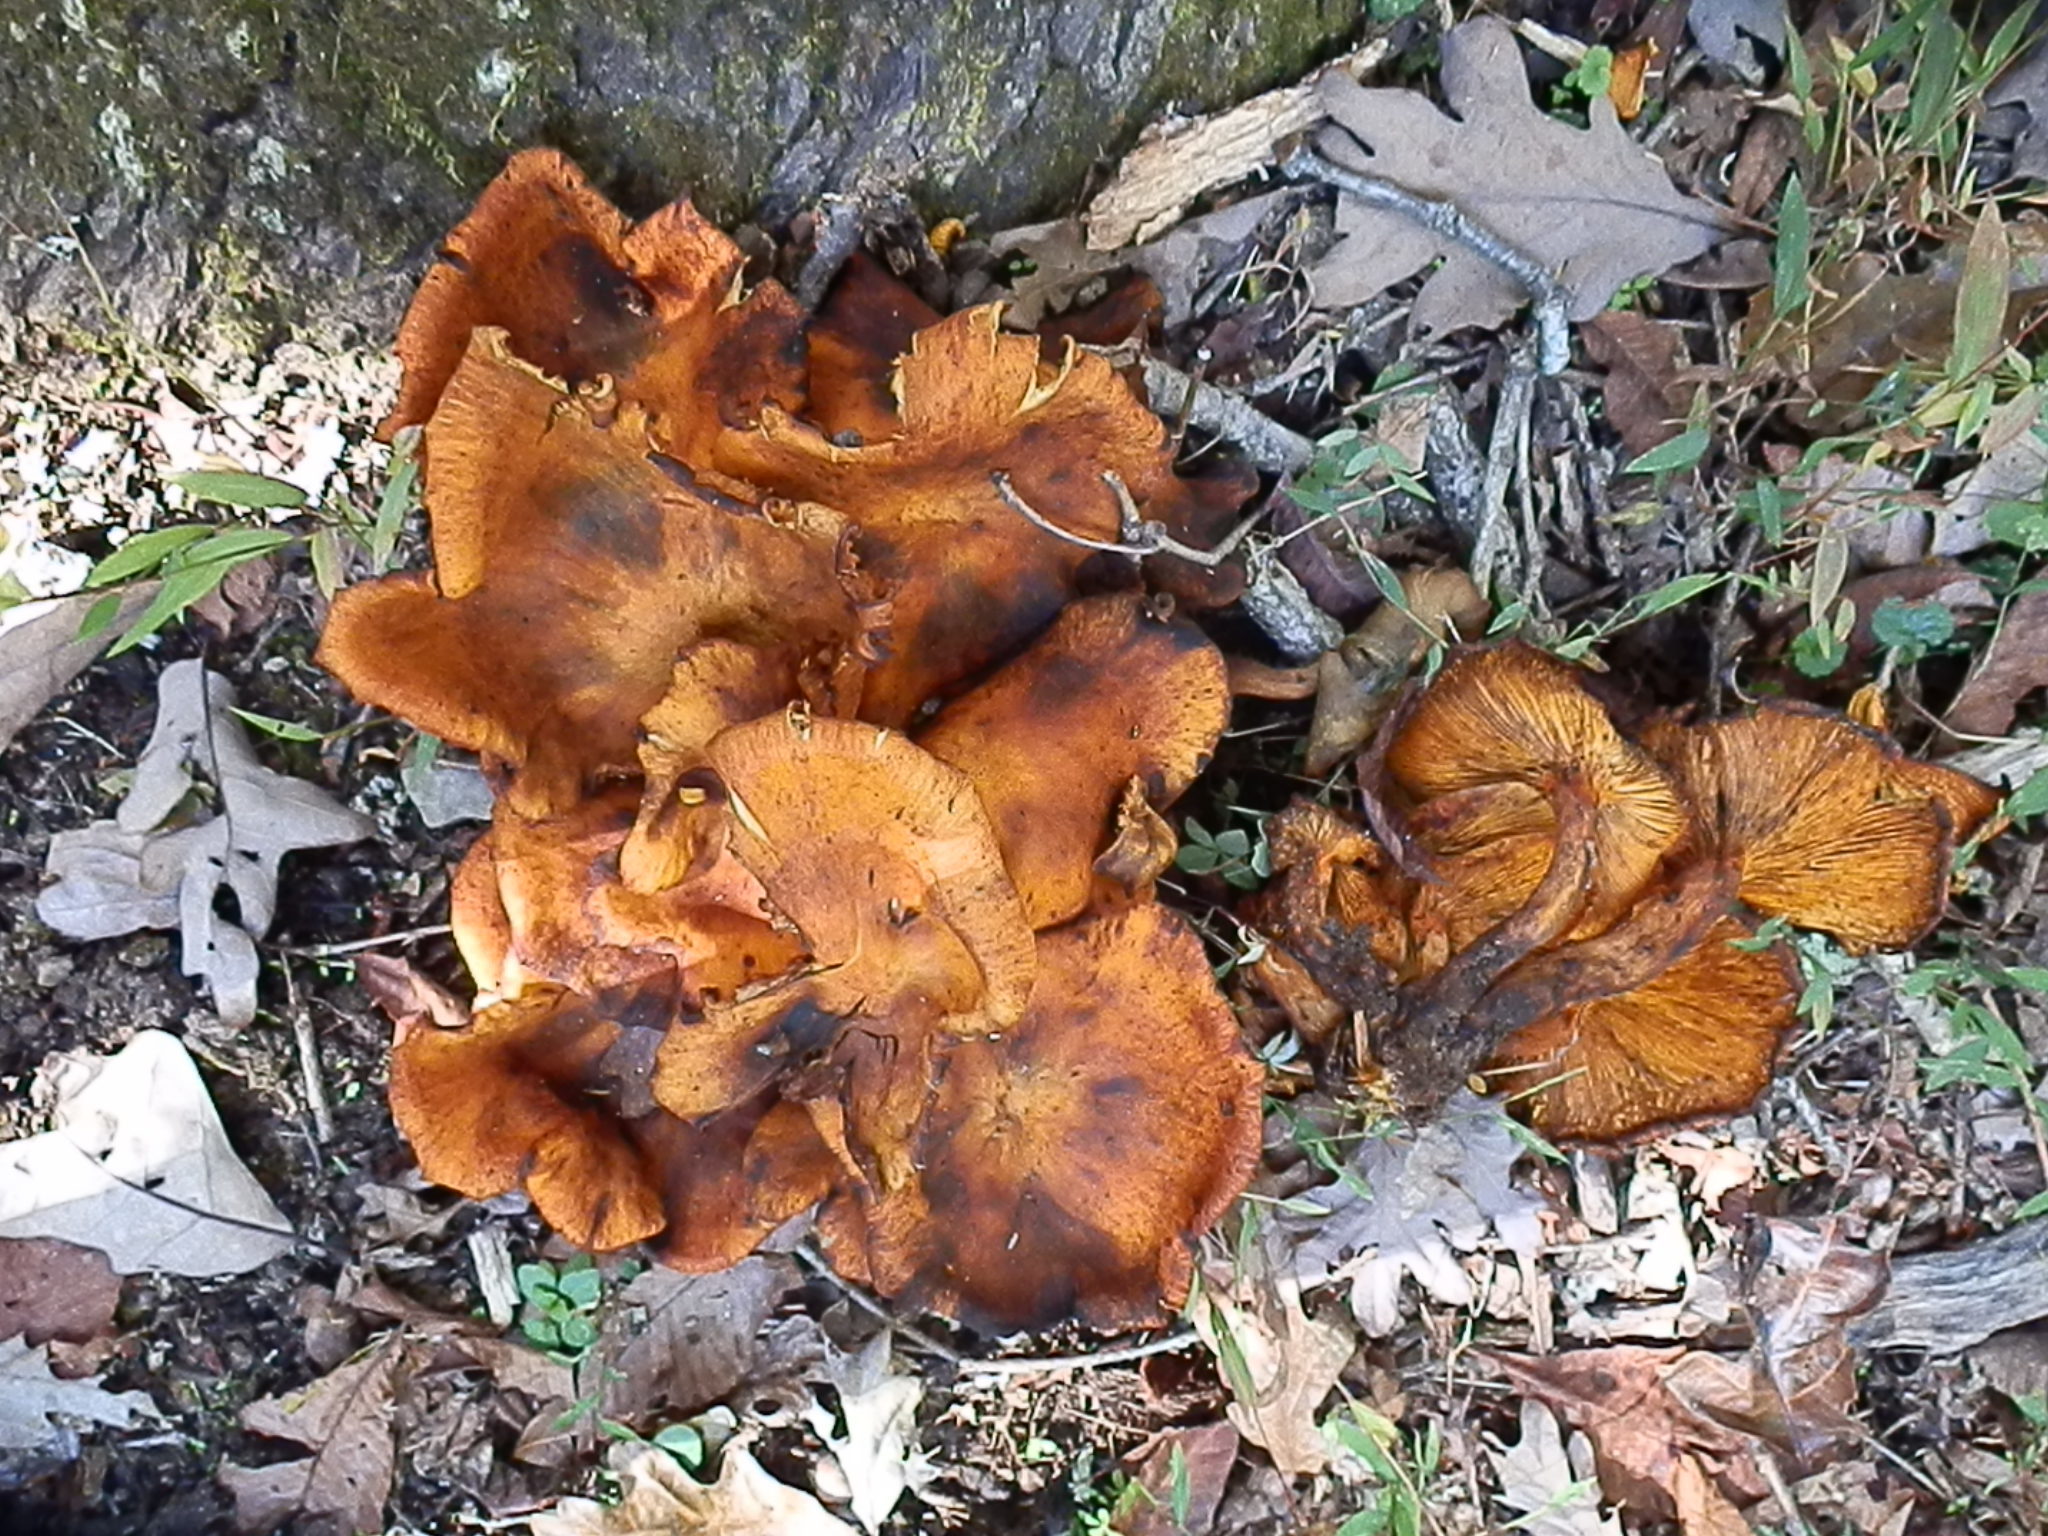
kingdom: Fungi
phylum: Basidiomycota
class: Agaricomycetes
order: Agaricales
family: Omphalotaceae
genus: Omphalotus
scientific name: Omphalotus illudens
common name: Jack o lantern
